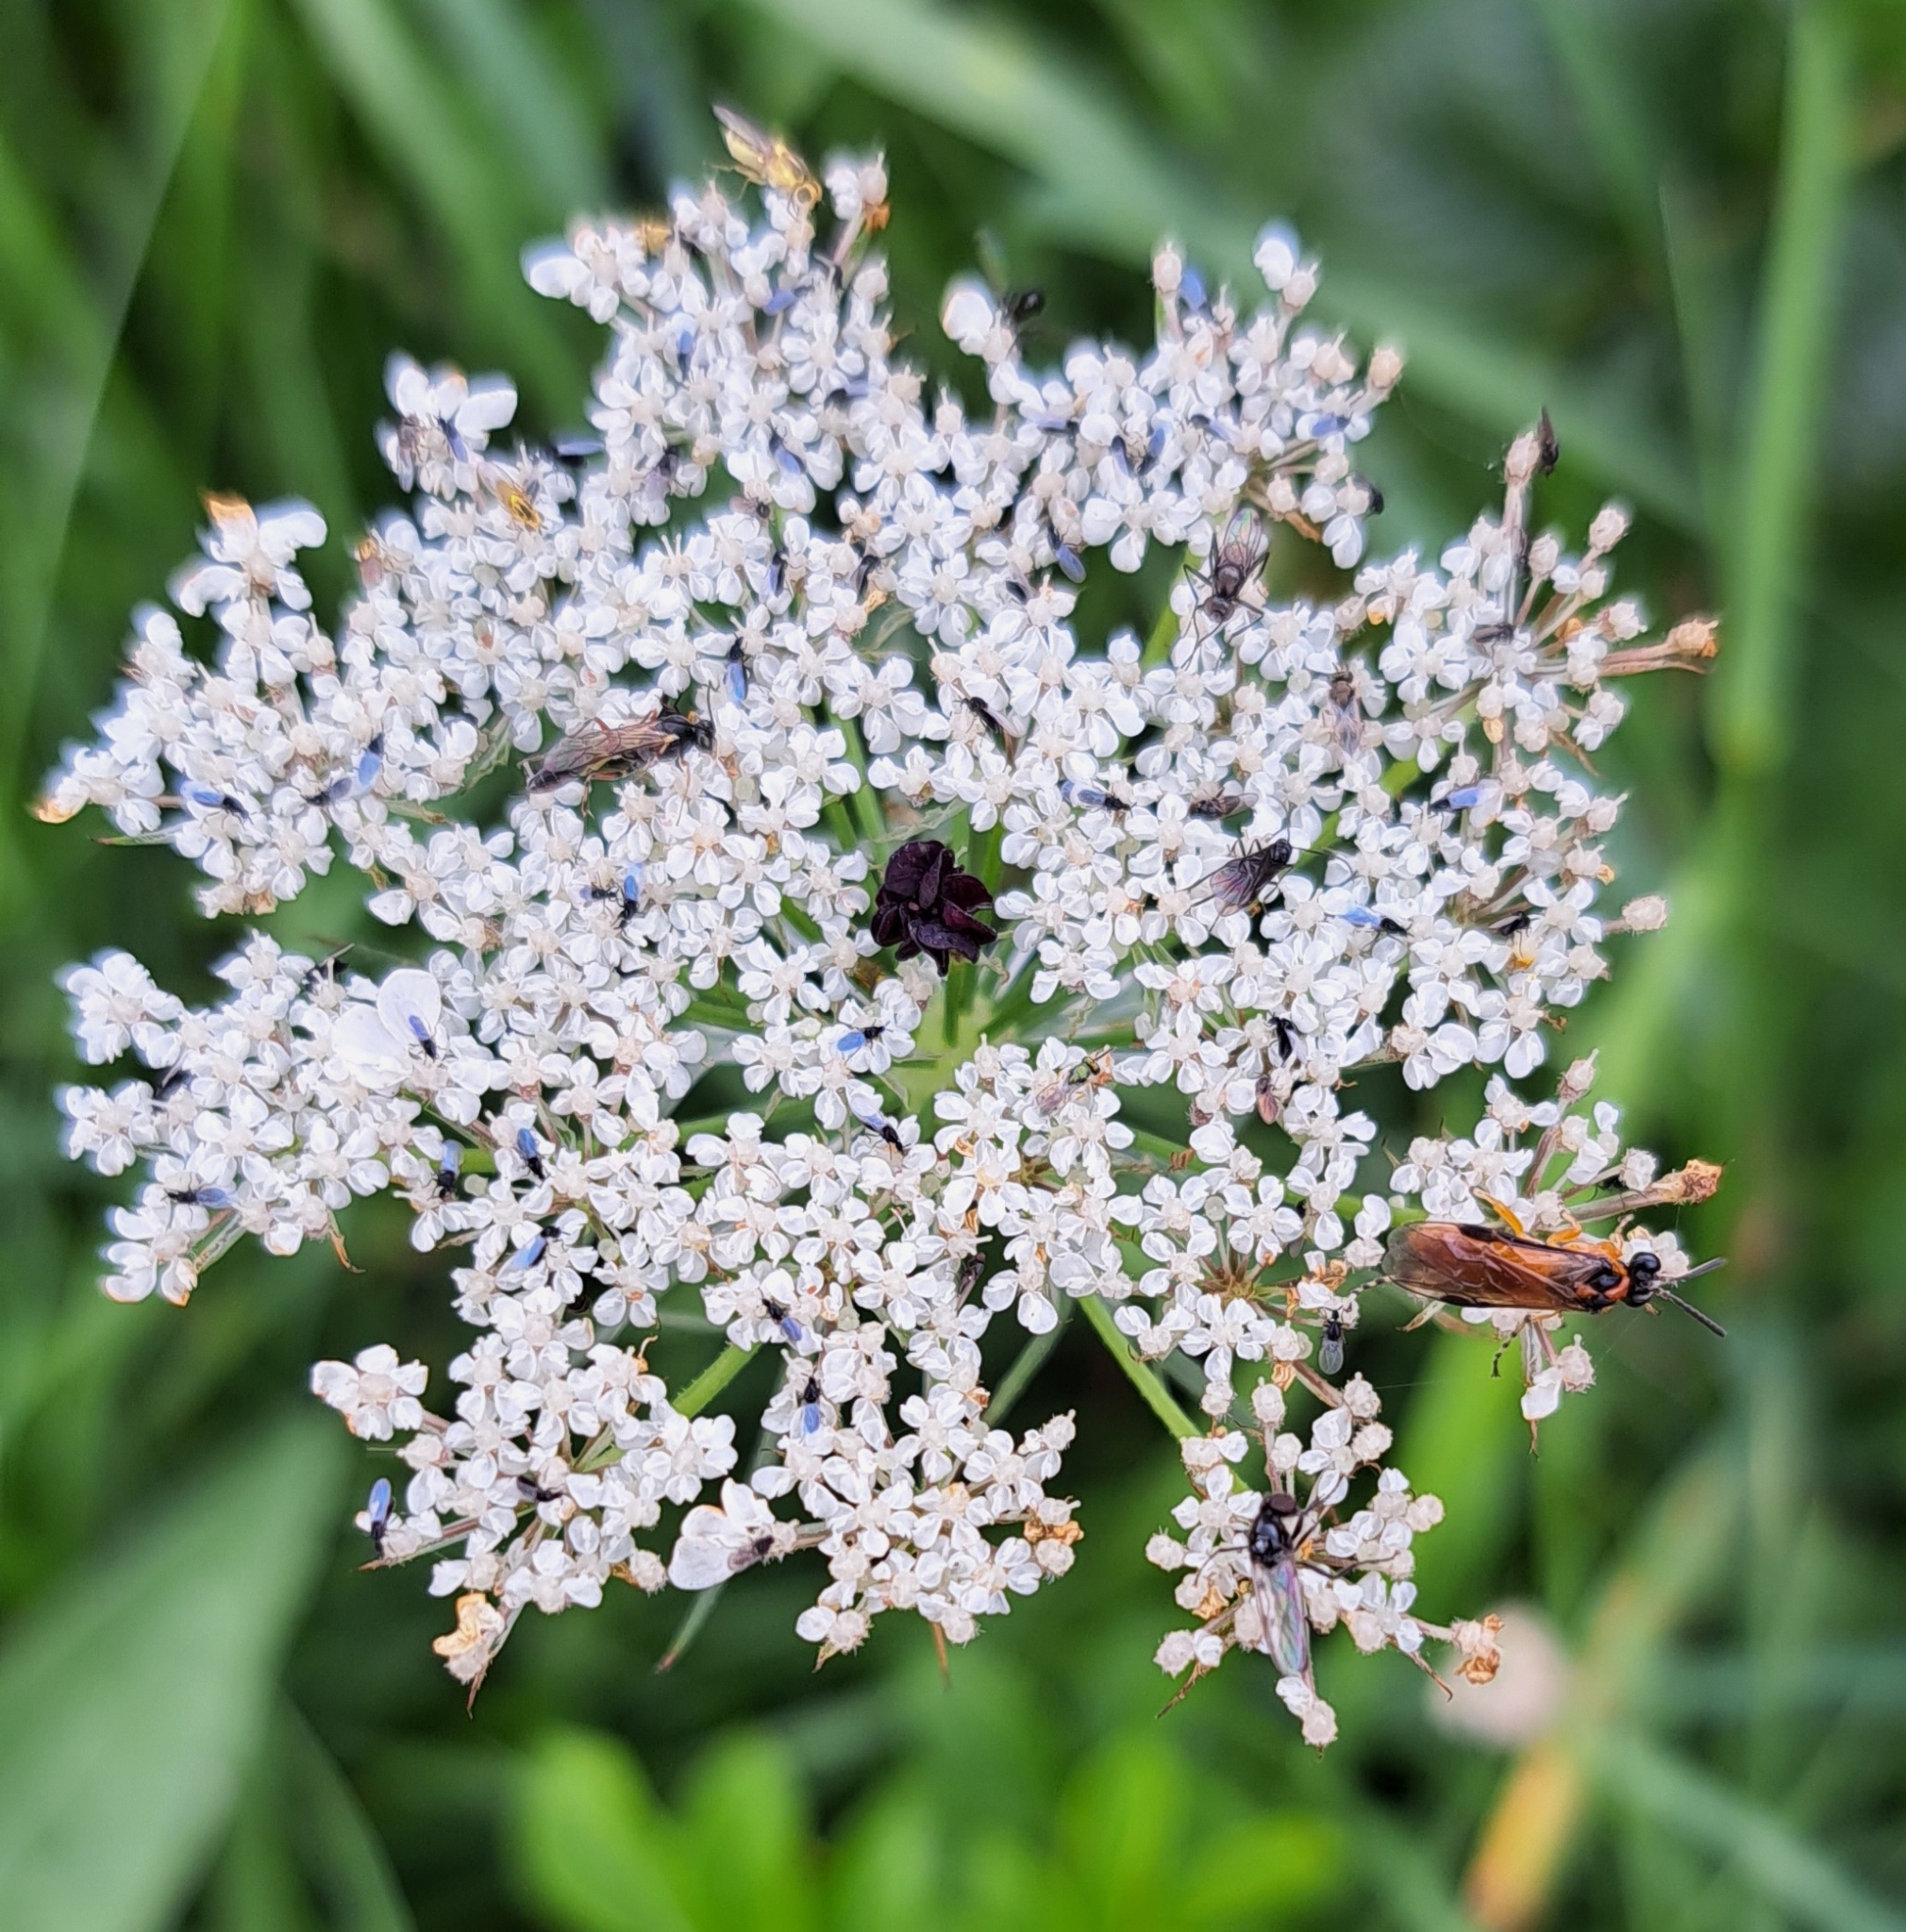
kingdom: Plantae
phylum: Tracheophyta
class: Magnoliopsida
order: Apiales
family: Apiaceae
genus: Daucus
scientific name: Daucus carota
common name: Wild carrot
